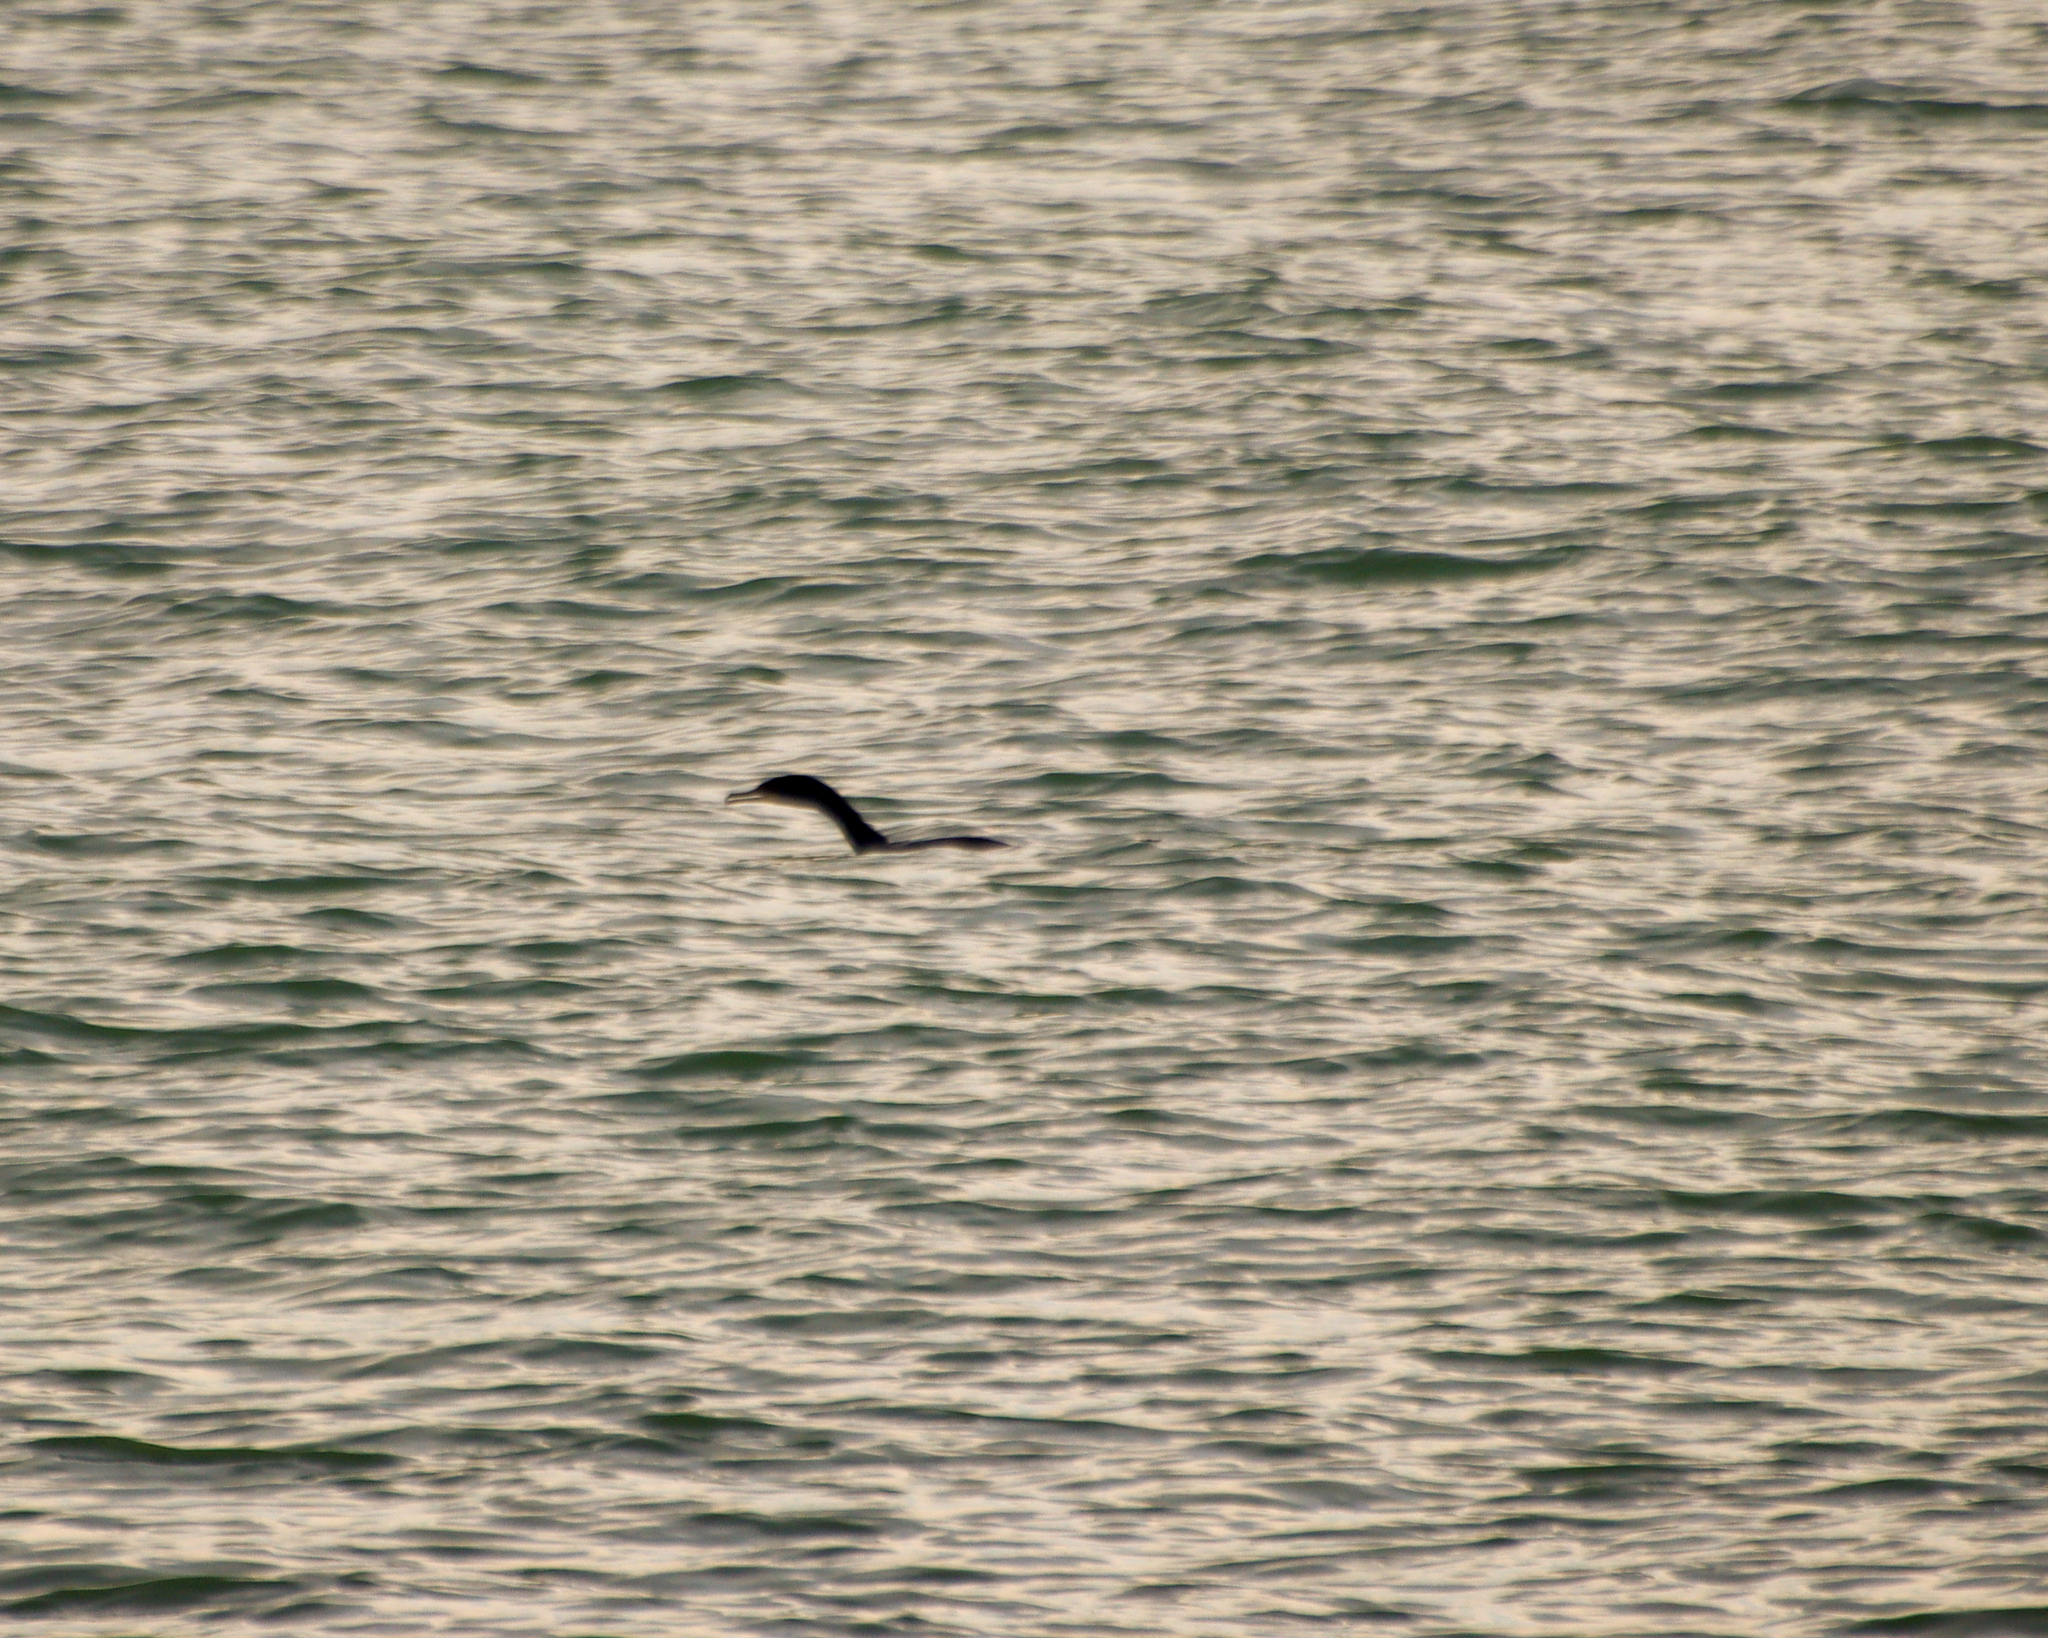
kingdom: Animalia
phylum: Chordata
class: Aves
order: Suliformes
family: Phalacrocoracidae
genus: Phalacrocorax
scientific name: Phalacrocorax auritus
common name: Double-crested cormorant
